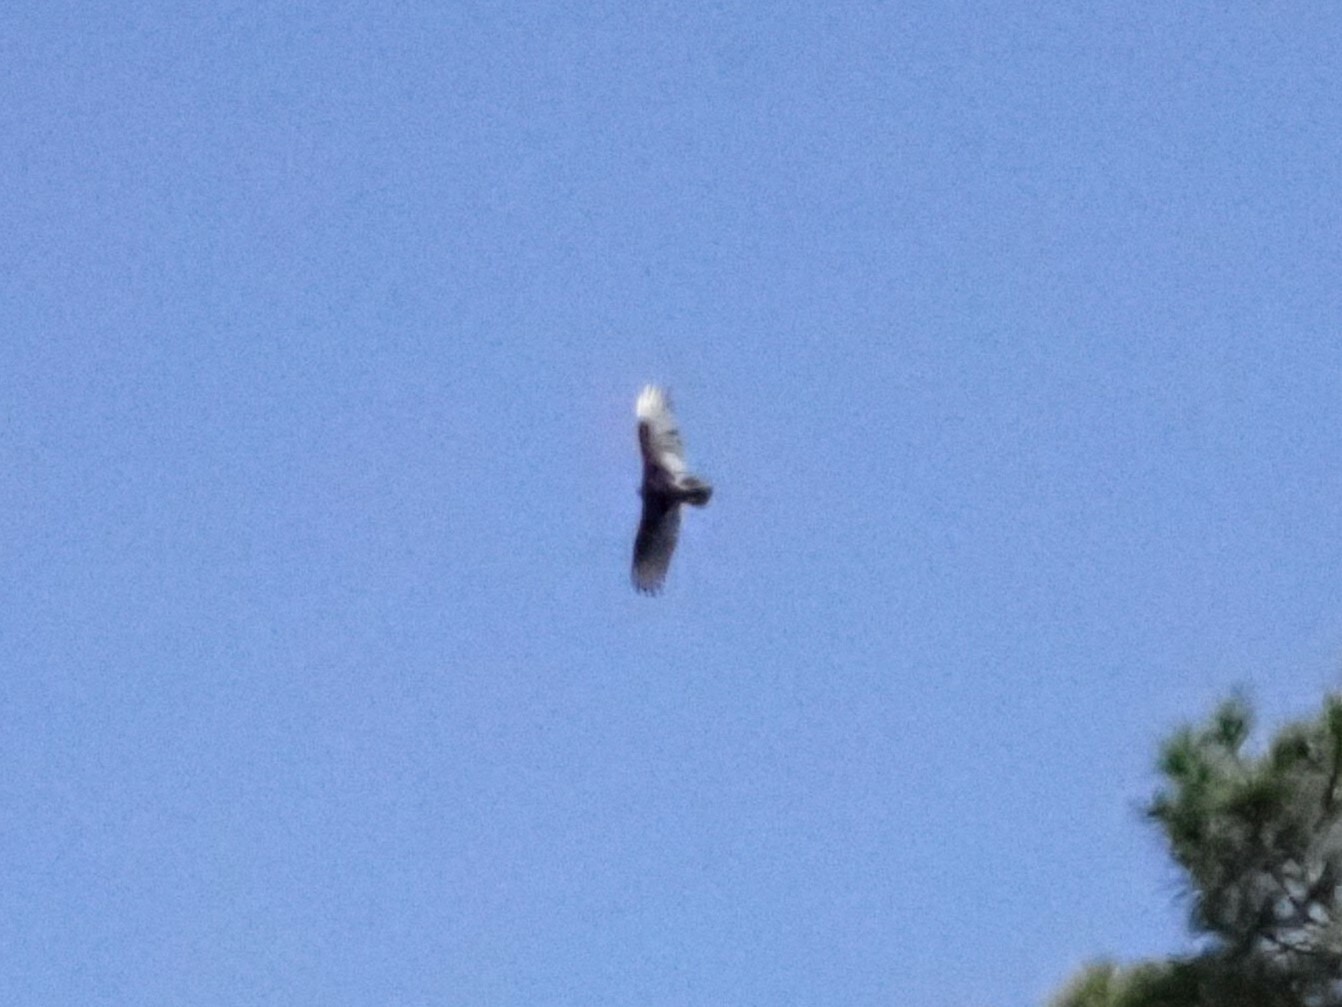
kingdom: Animalia
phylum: Chordata
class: Aves
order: Accipitriformes
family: Cathartidae
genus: Cathartes
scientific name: Cathartes aura
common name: Turkey vulture
